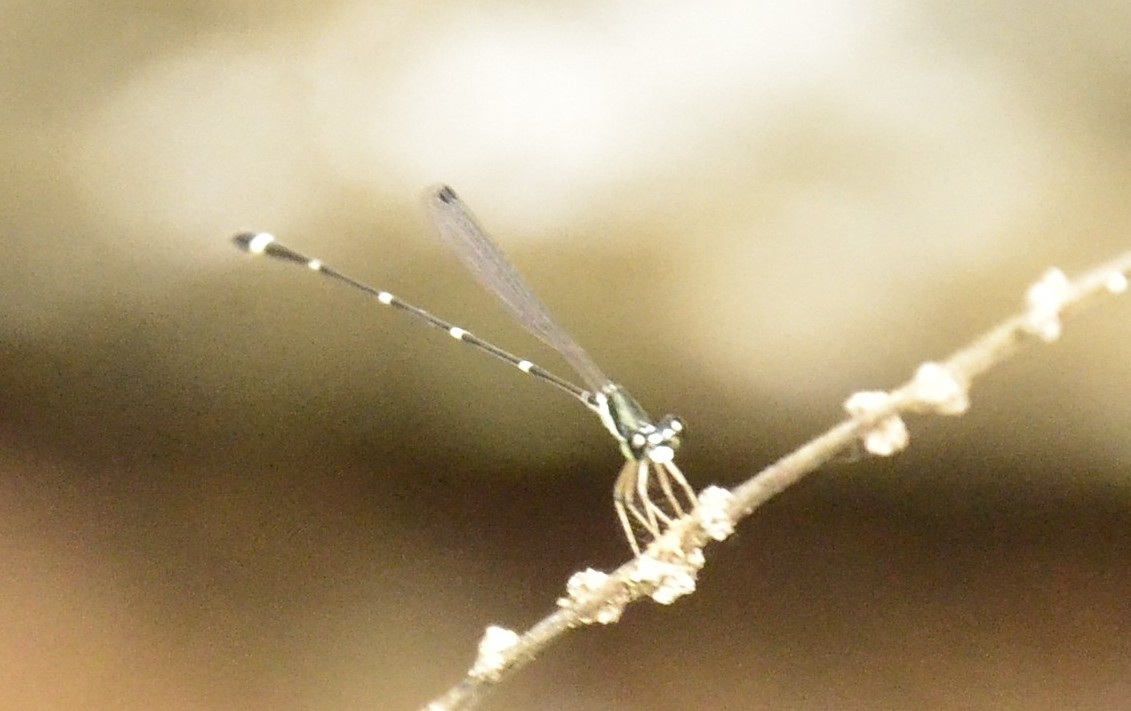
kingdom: Animalia
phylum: Arthropoda
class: Insecta
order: Odonata
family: Platystictidae
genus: Protosticta
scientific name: Protosticta gravelyi
